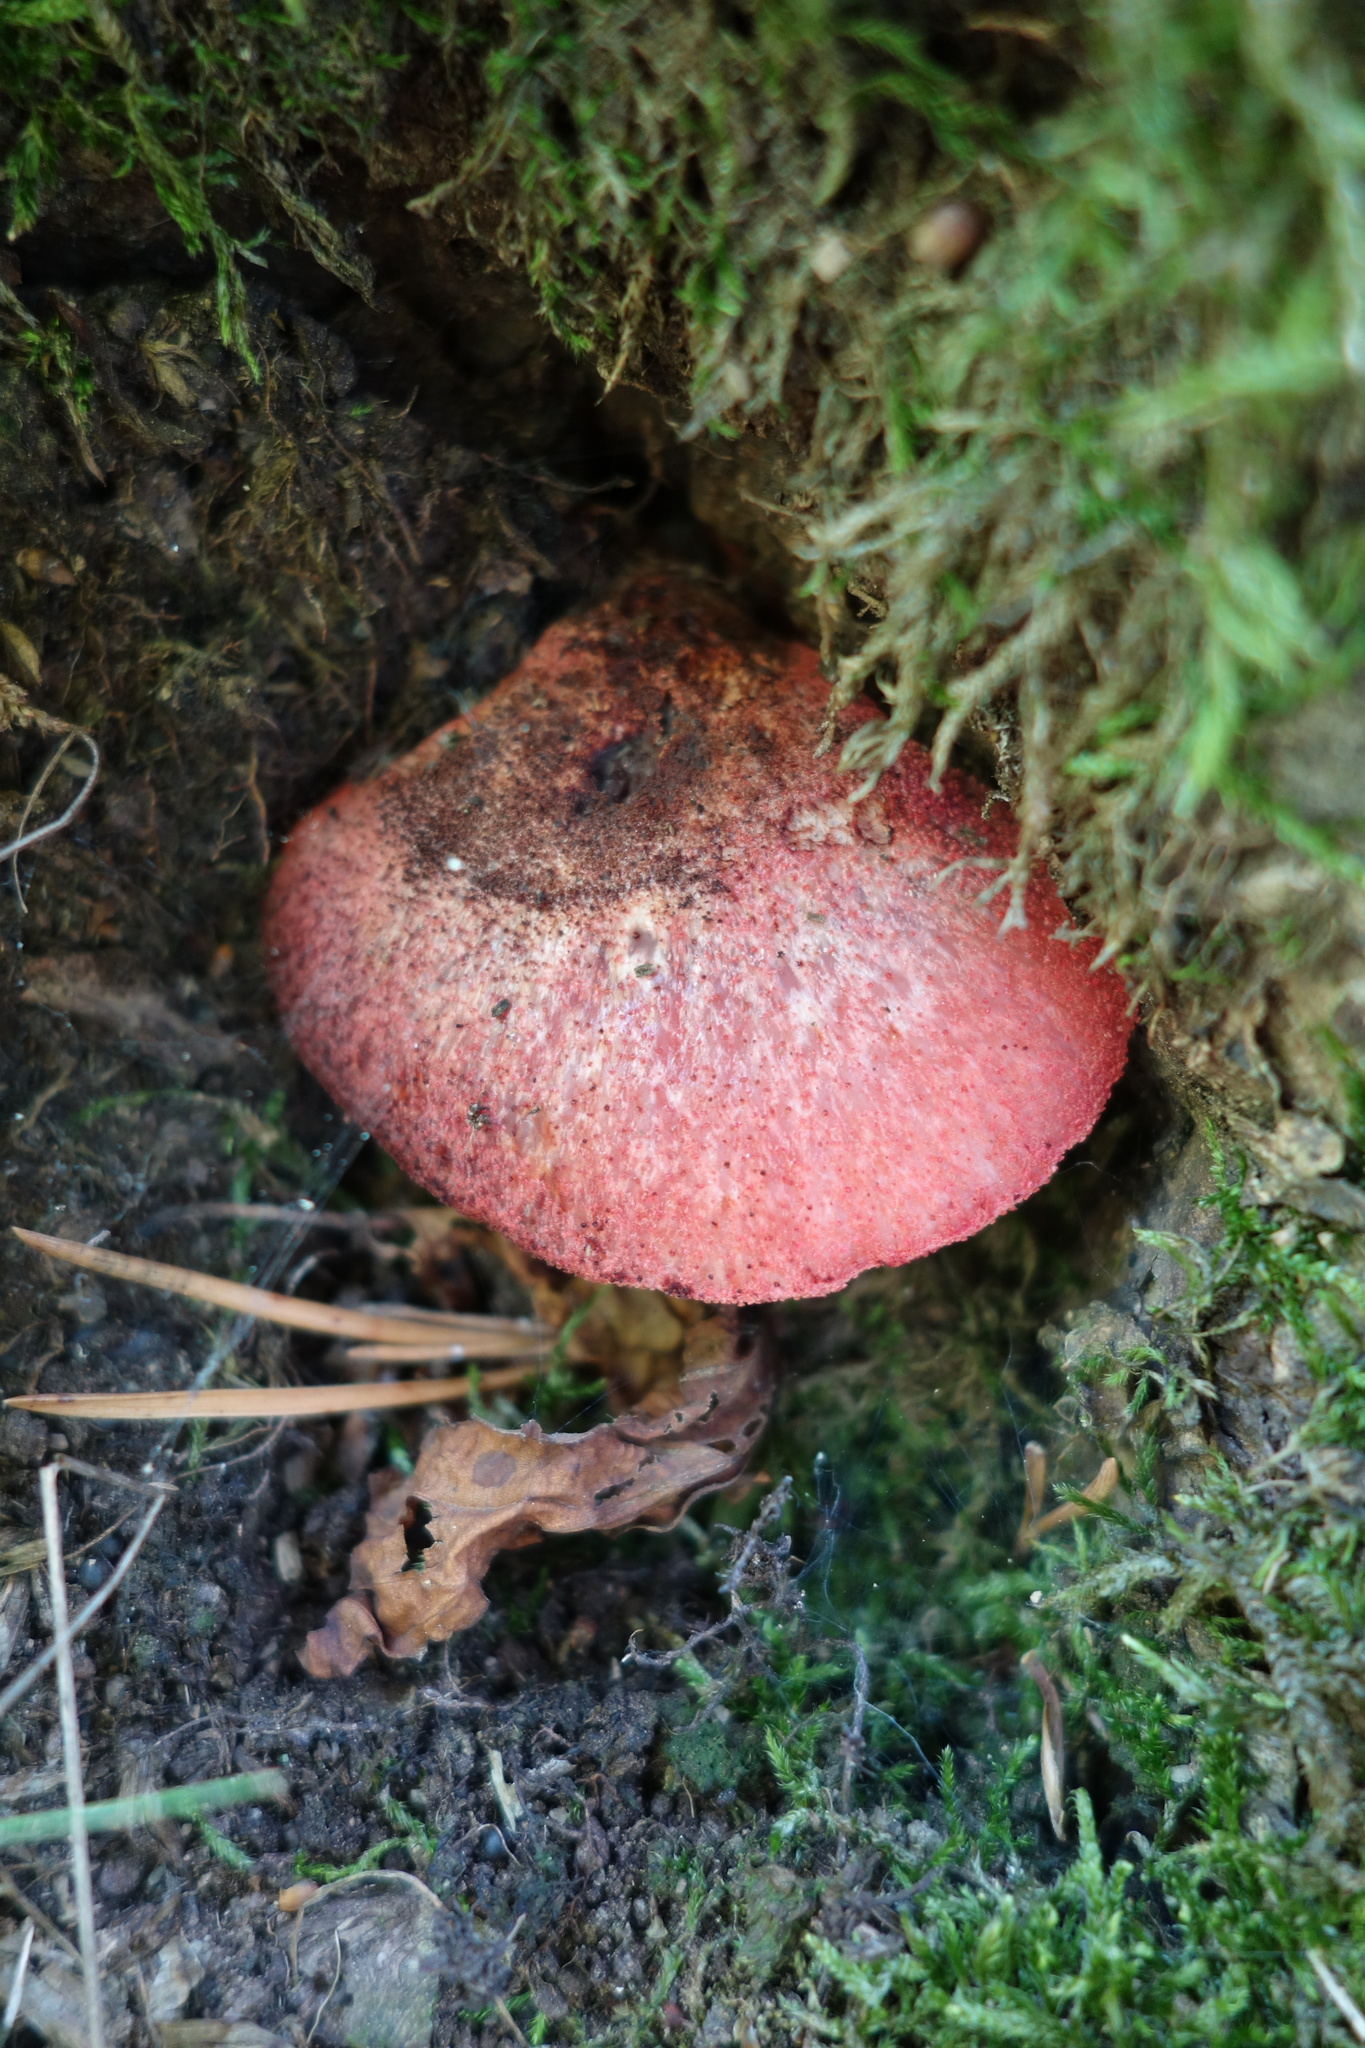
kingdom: Fungi
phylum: Basidiomycota
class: Agaricomycetes
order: Agaricales
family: Fistulinaceae
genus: Fistulina
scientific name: Fistulina hepatica
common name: Beef-steak fungus
